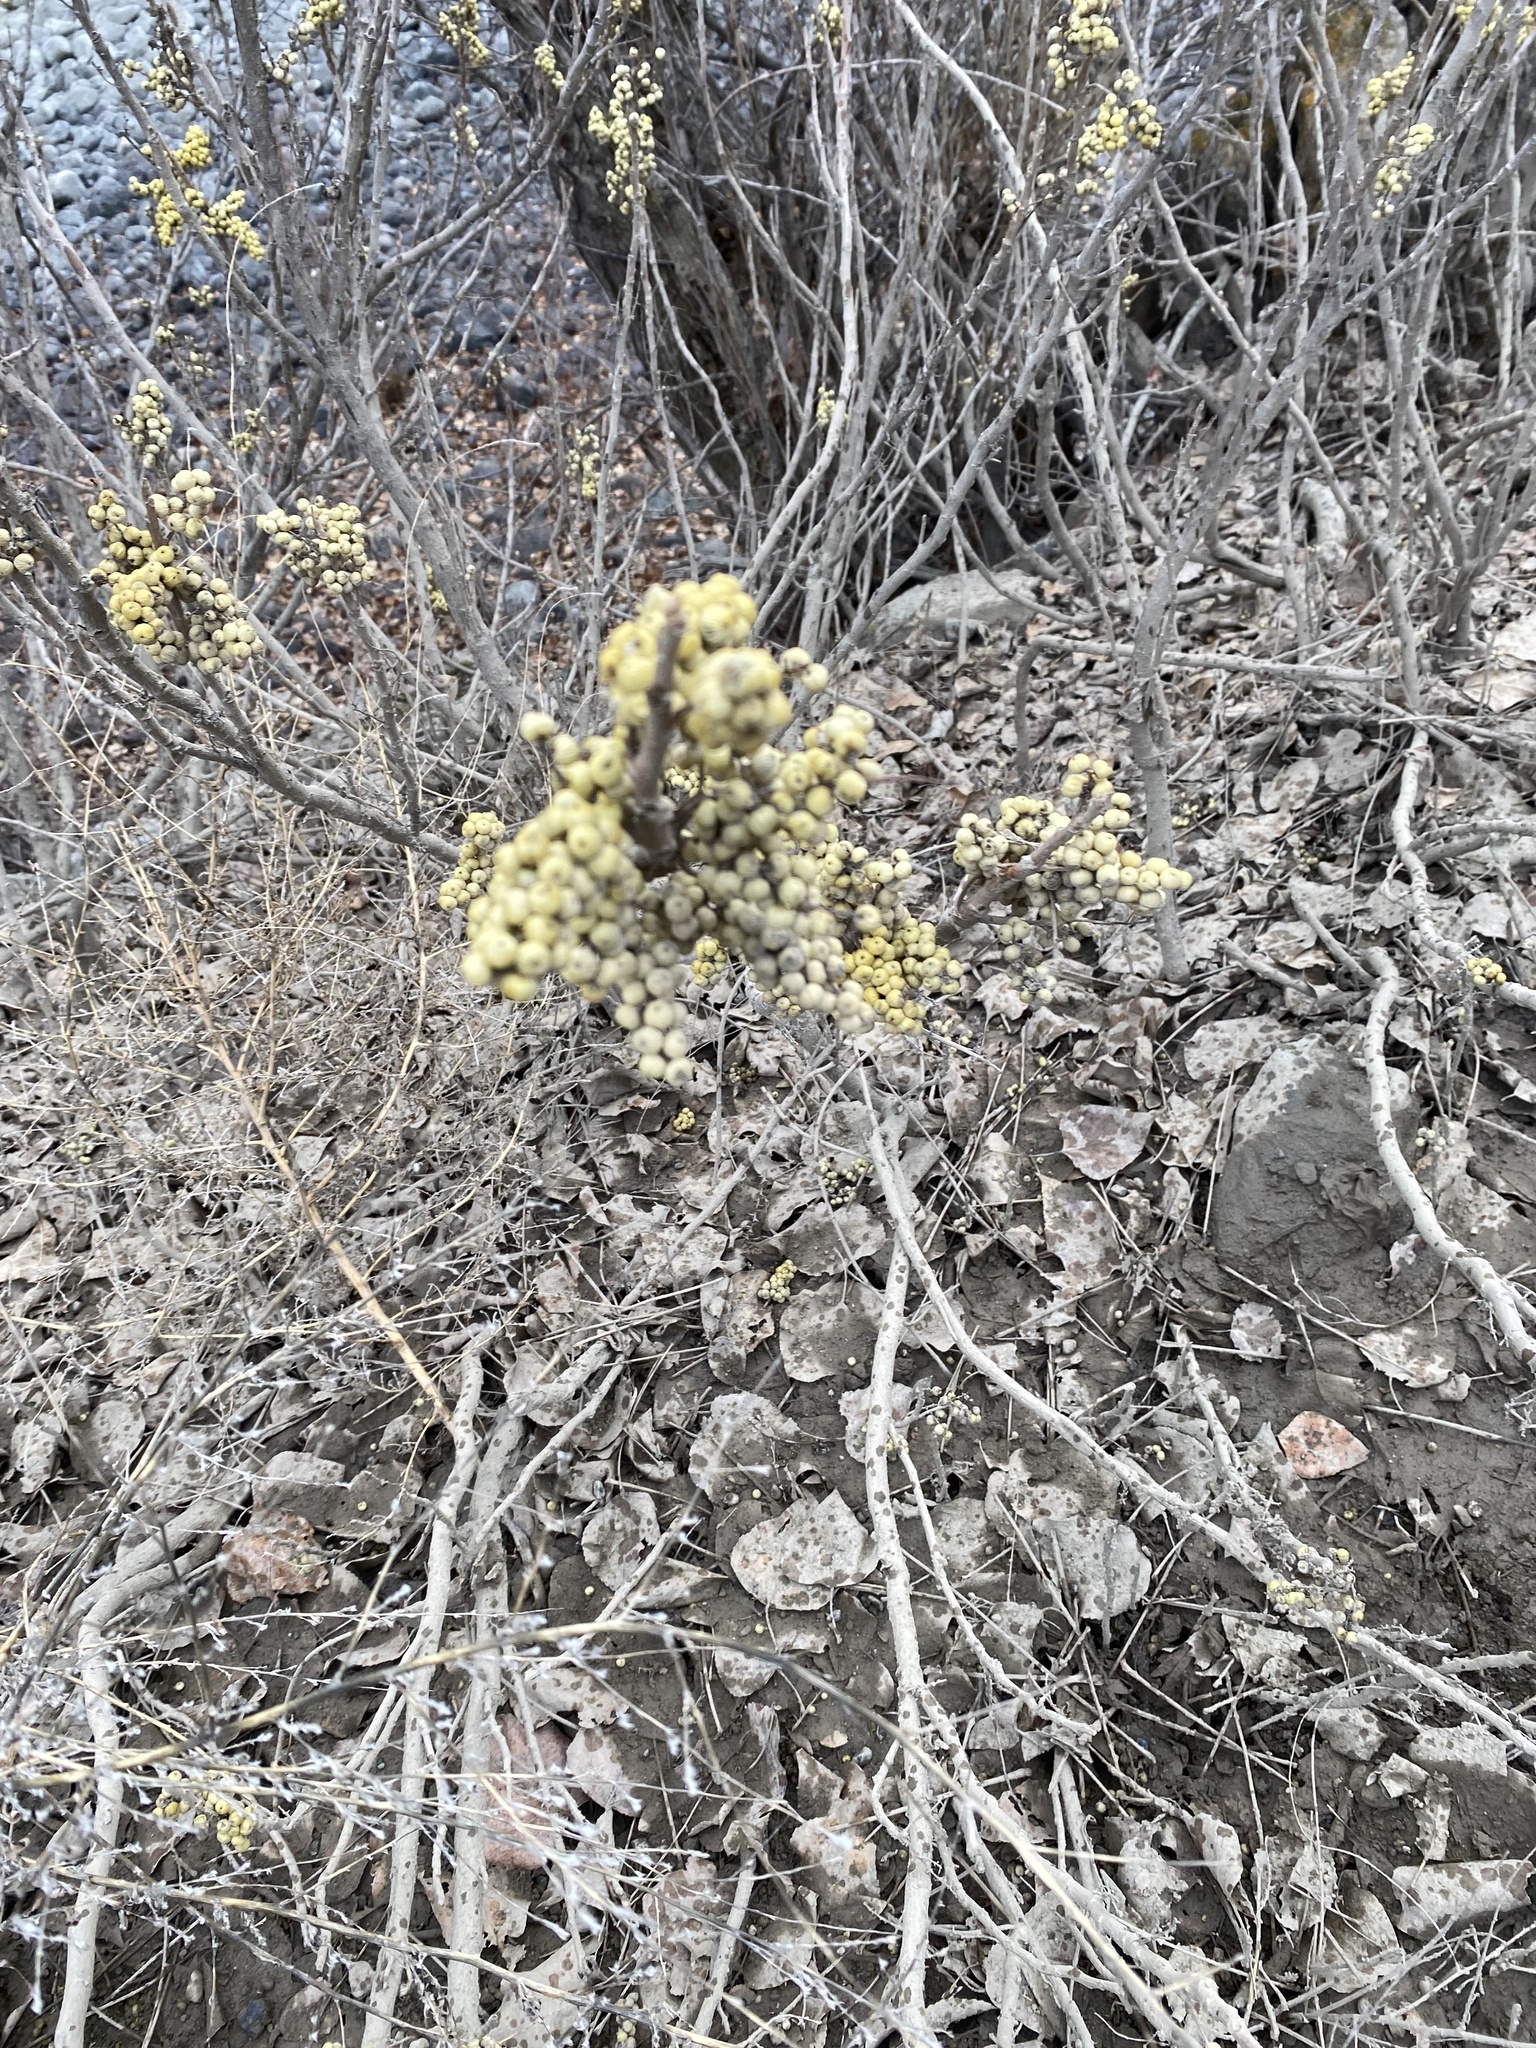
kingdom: Plantae
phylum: Tracheophyta
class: Magnoliopsida
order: Sapindales
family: Anacardiaceae
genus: Toxicodendron
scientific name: Toxicodendron rydbergii
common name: Rydberg's poison-ivy
